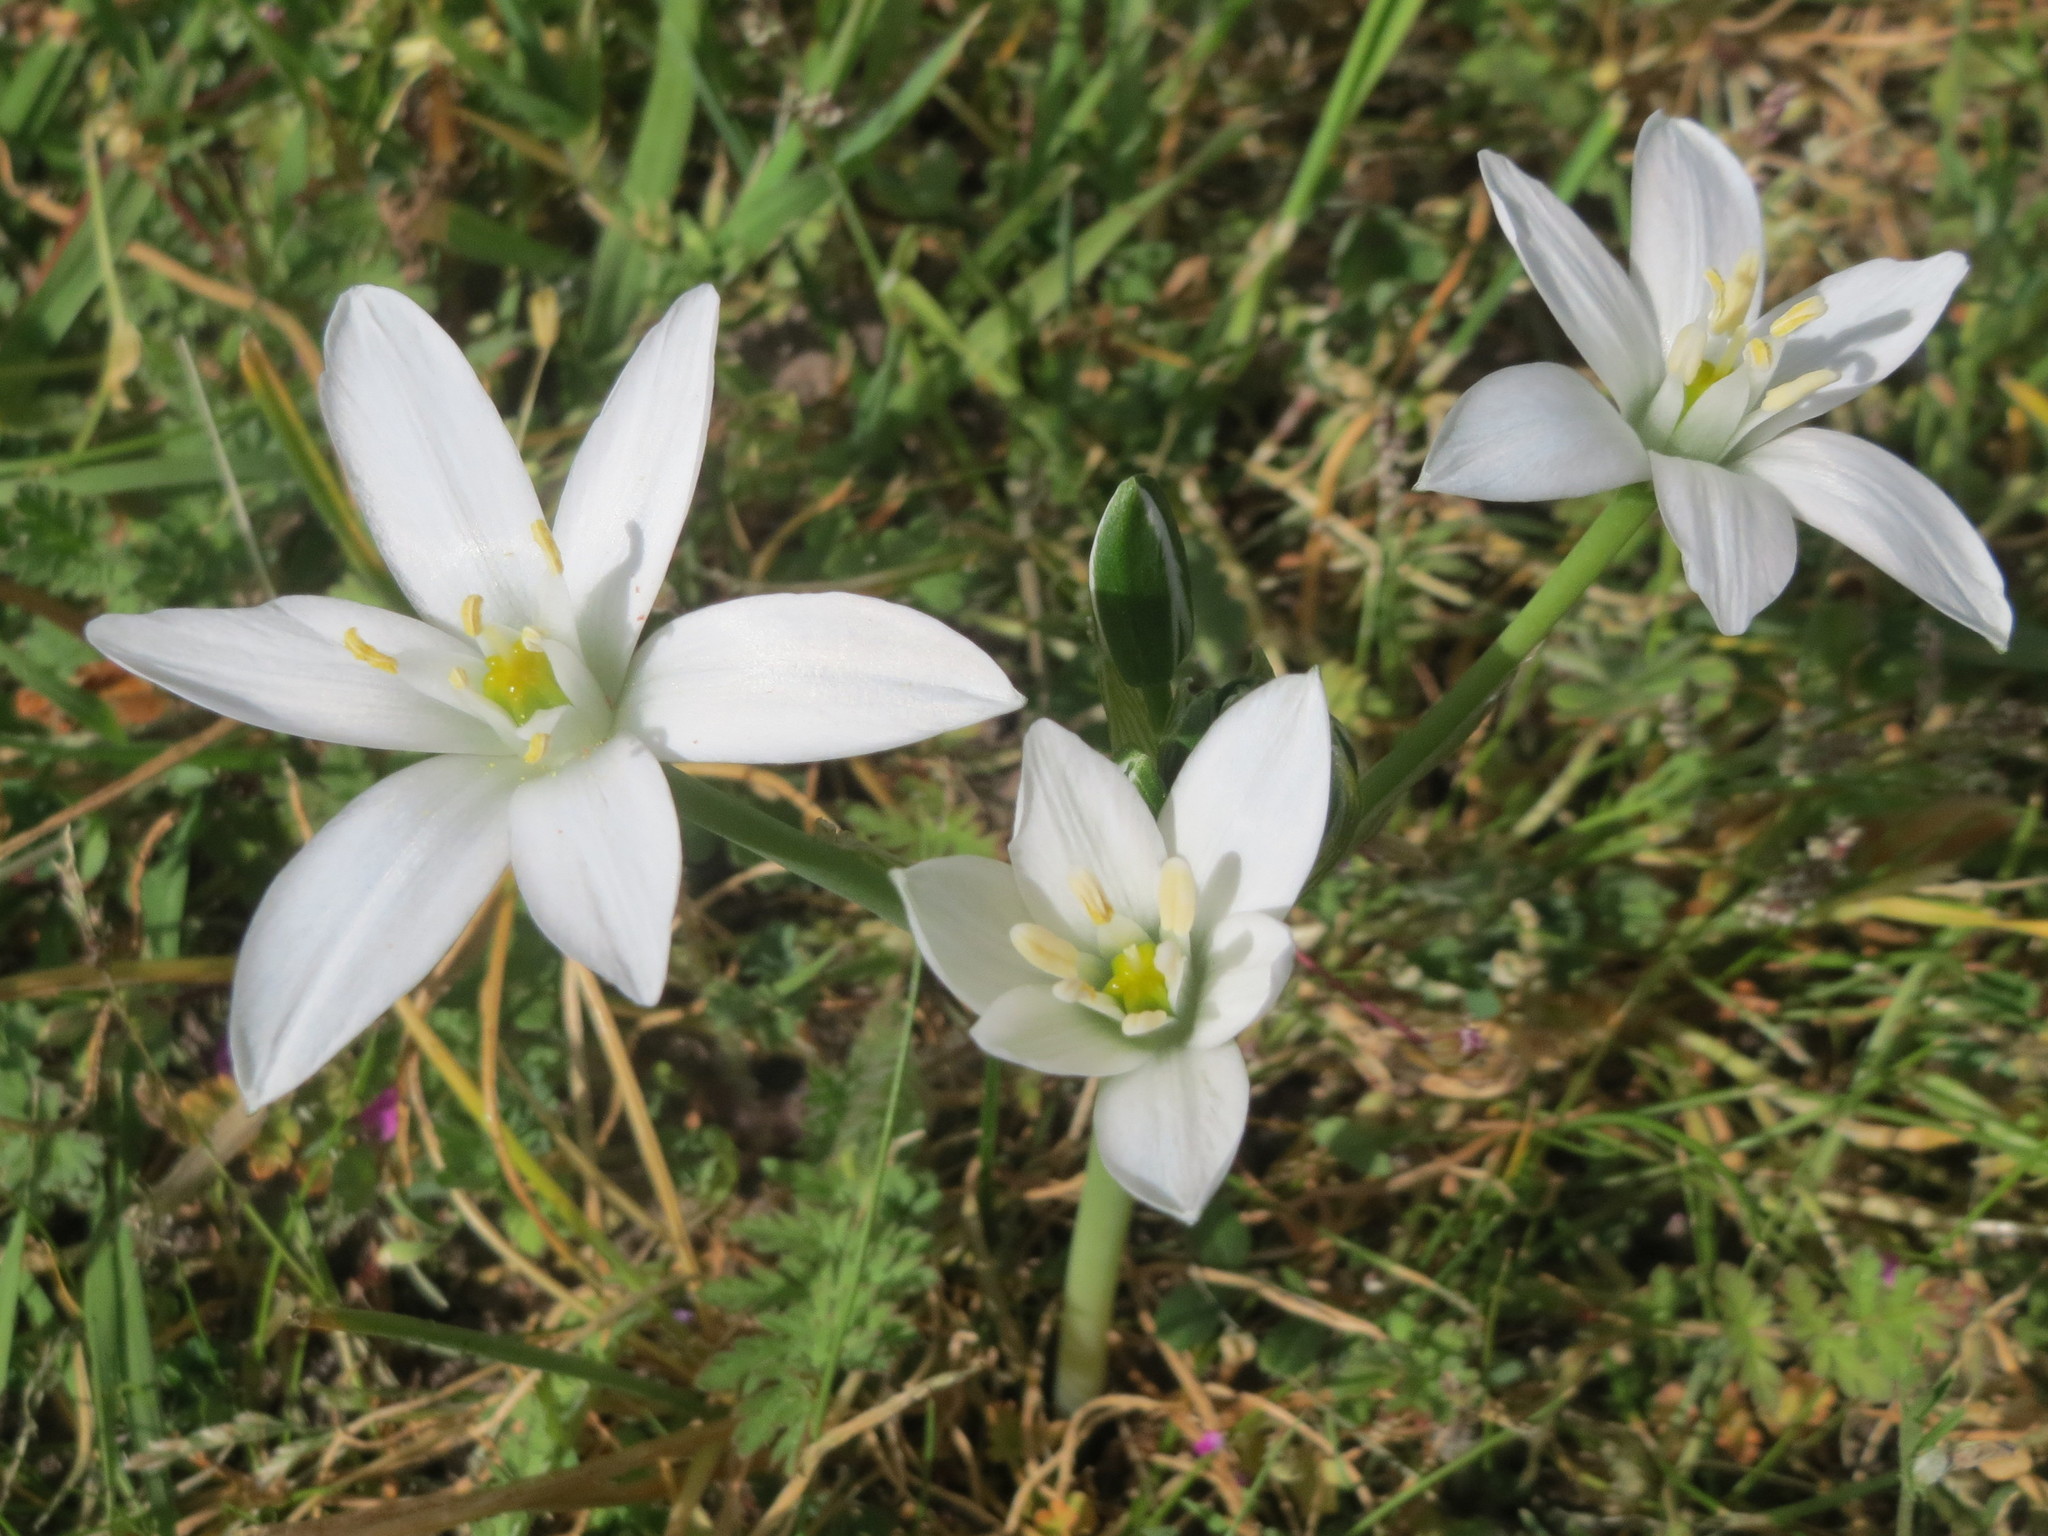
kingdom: Plantae
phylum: Tracheophyta
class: Liliopsida
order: Asparagales
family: Asparagaceae
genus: Ornithogalum
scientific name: Ornithogalum umbellatum
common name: Garden star-of-bethlehem
